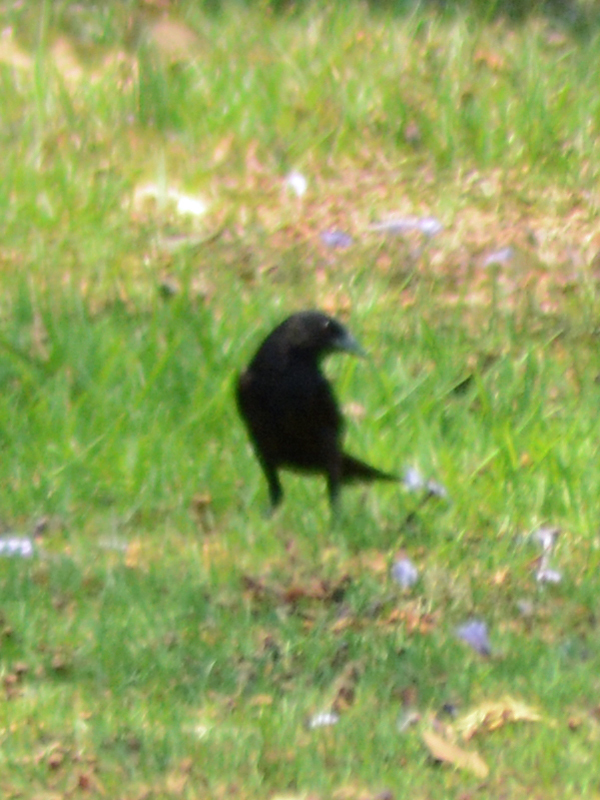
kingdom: Animalia
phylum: Chordata
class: Aves
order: Passeriformes
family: Icteridae
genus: Molothrus
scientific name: Molothrus aeneus
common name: Bronzed cowbird
